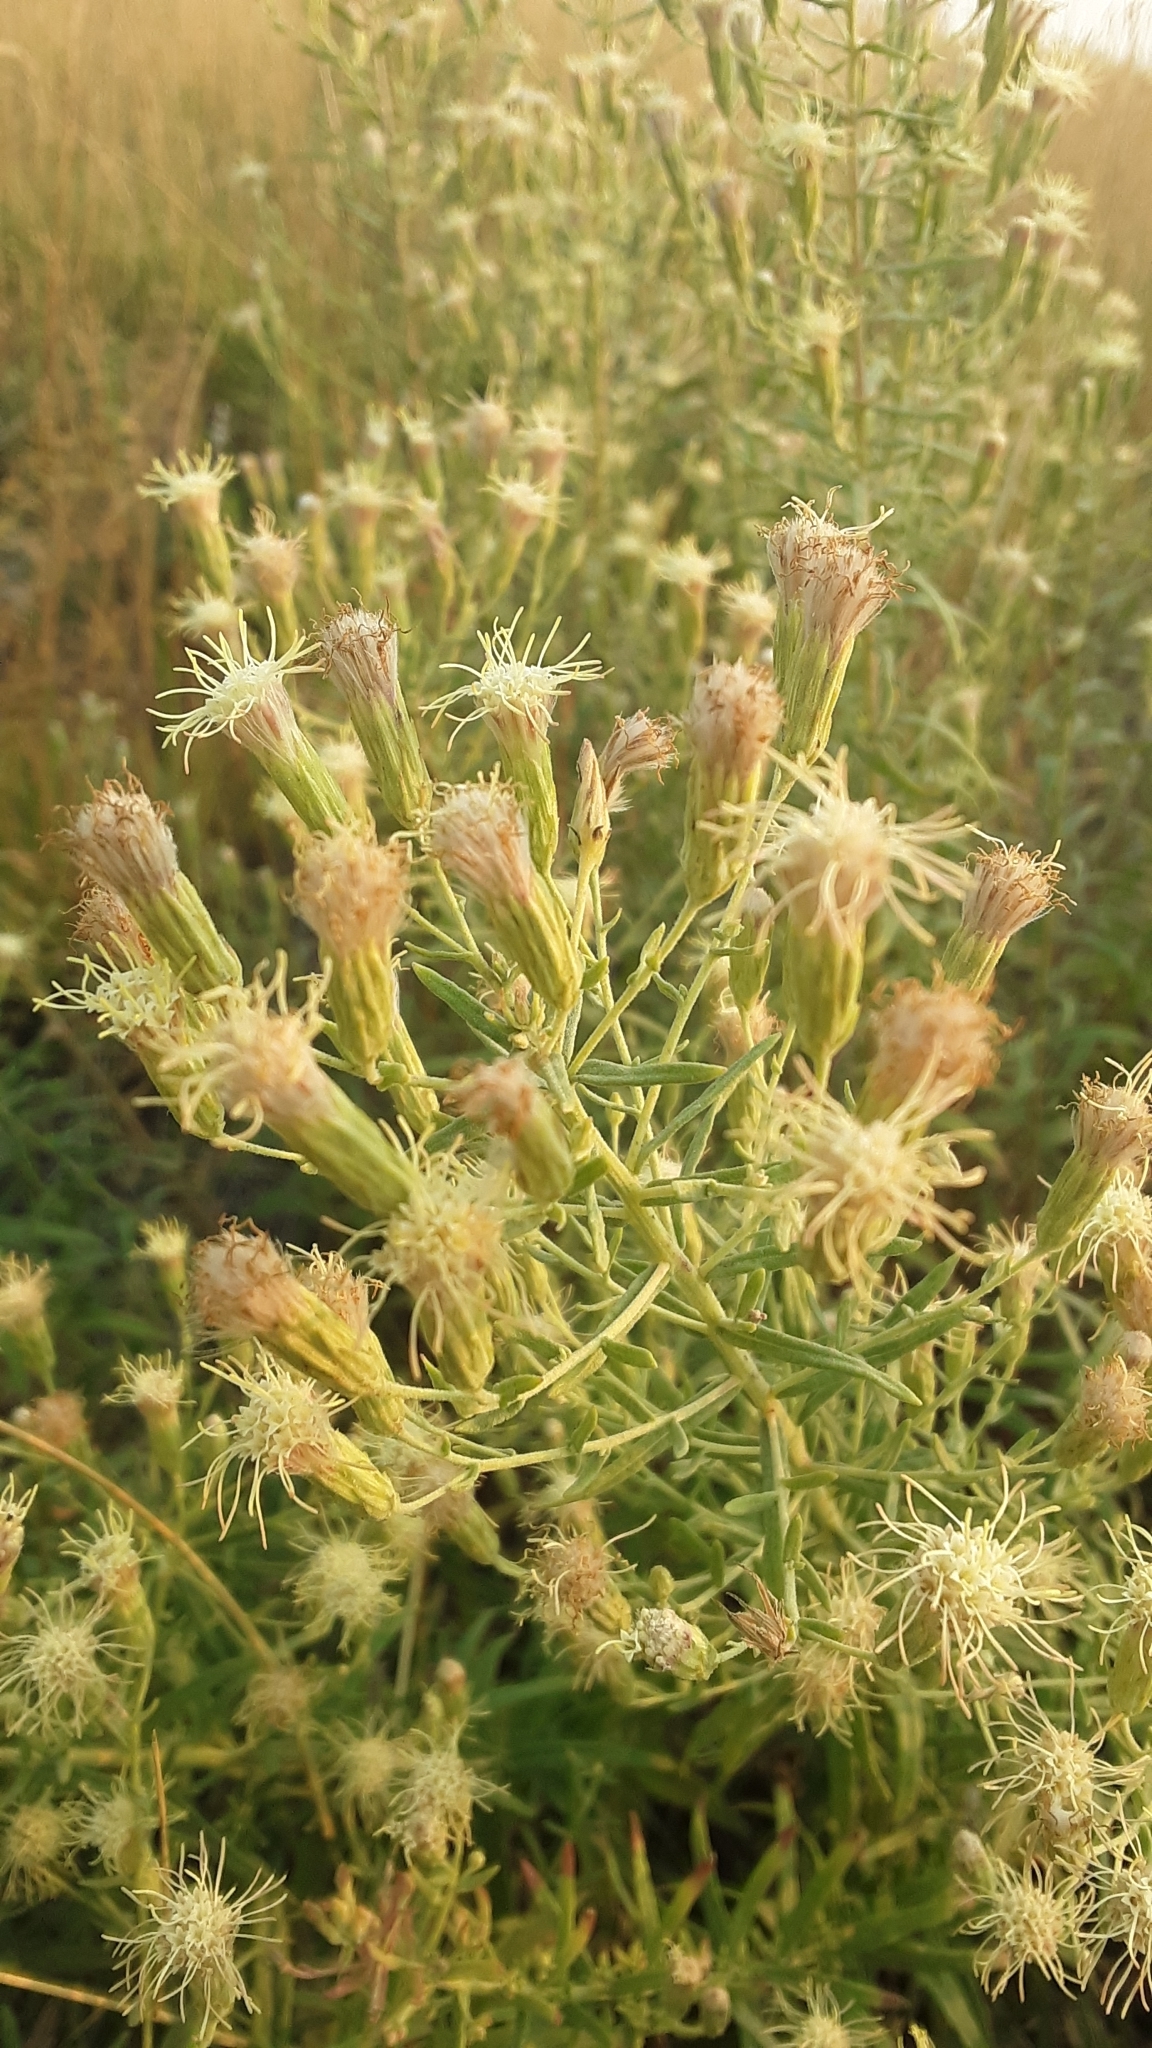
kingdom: Plantae
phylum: Tracheophyta
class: Magnoliopsida
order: Asterales
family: Asteraceae
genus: Brickellia
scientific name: Brickellia eupatorioides
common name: False boneset
